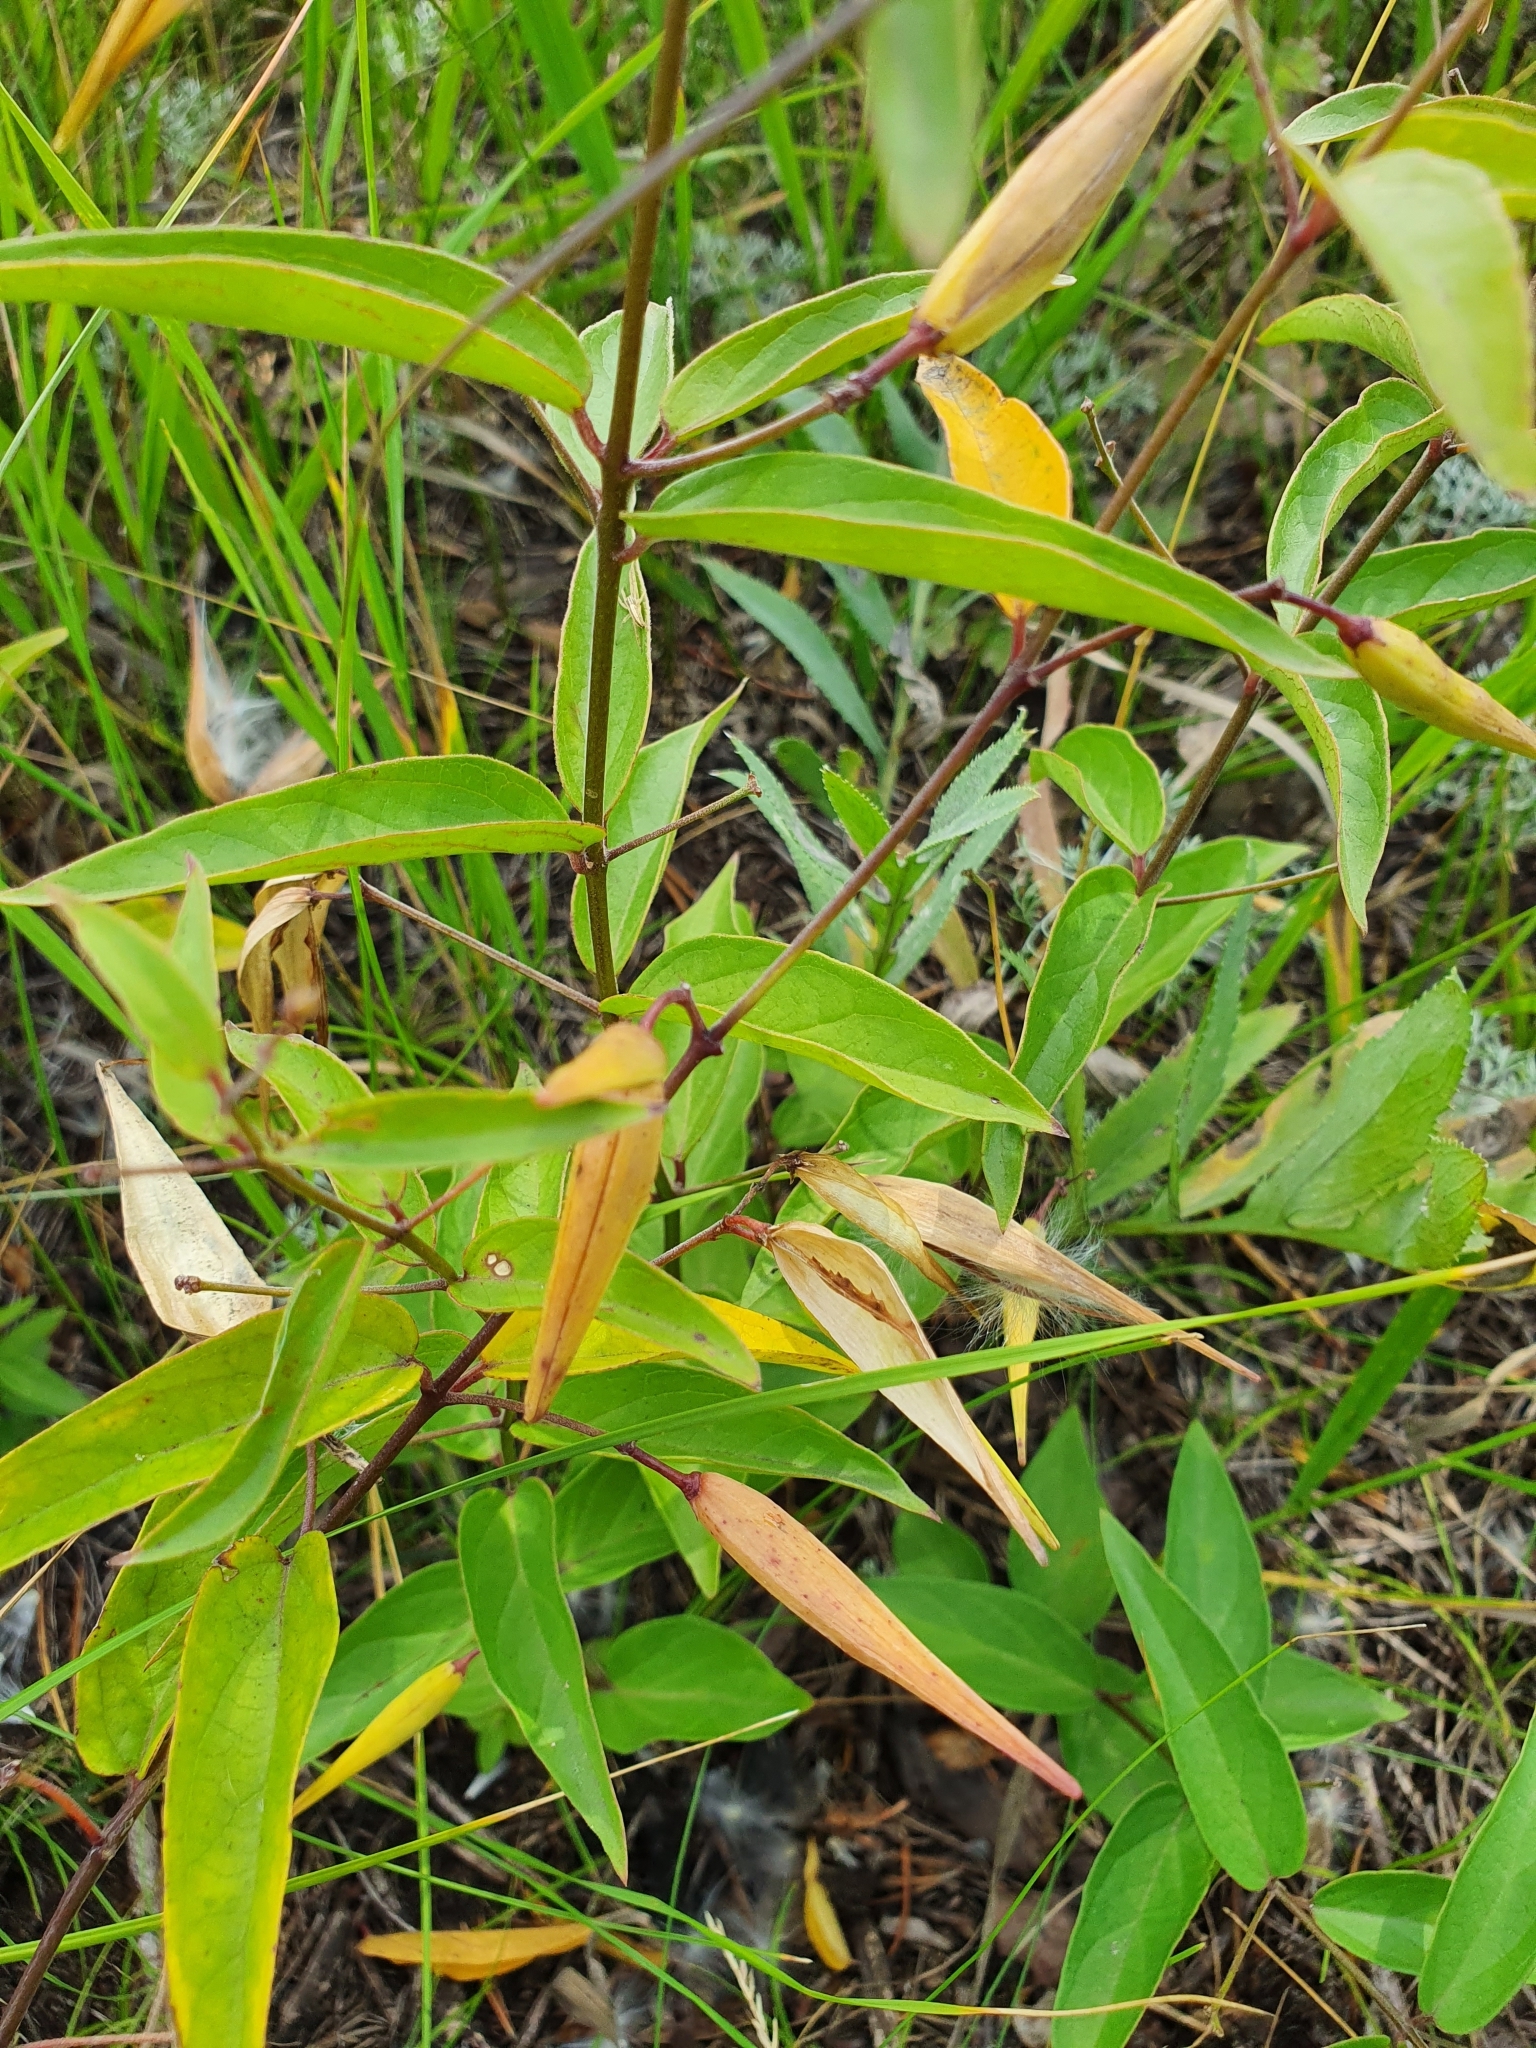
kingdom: Plantae
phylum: Tracheophyta
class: Magnoliopsida
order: Gentianales
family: Apocynaceae
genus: Vincetoxicum
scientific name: Vincetoxicum hirundinaria
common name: White swallowwort
